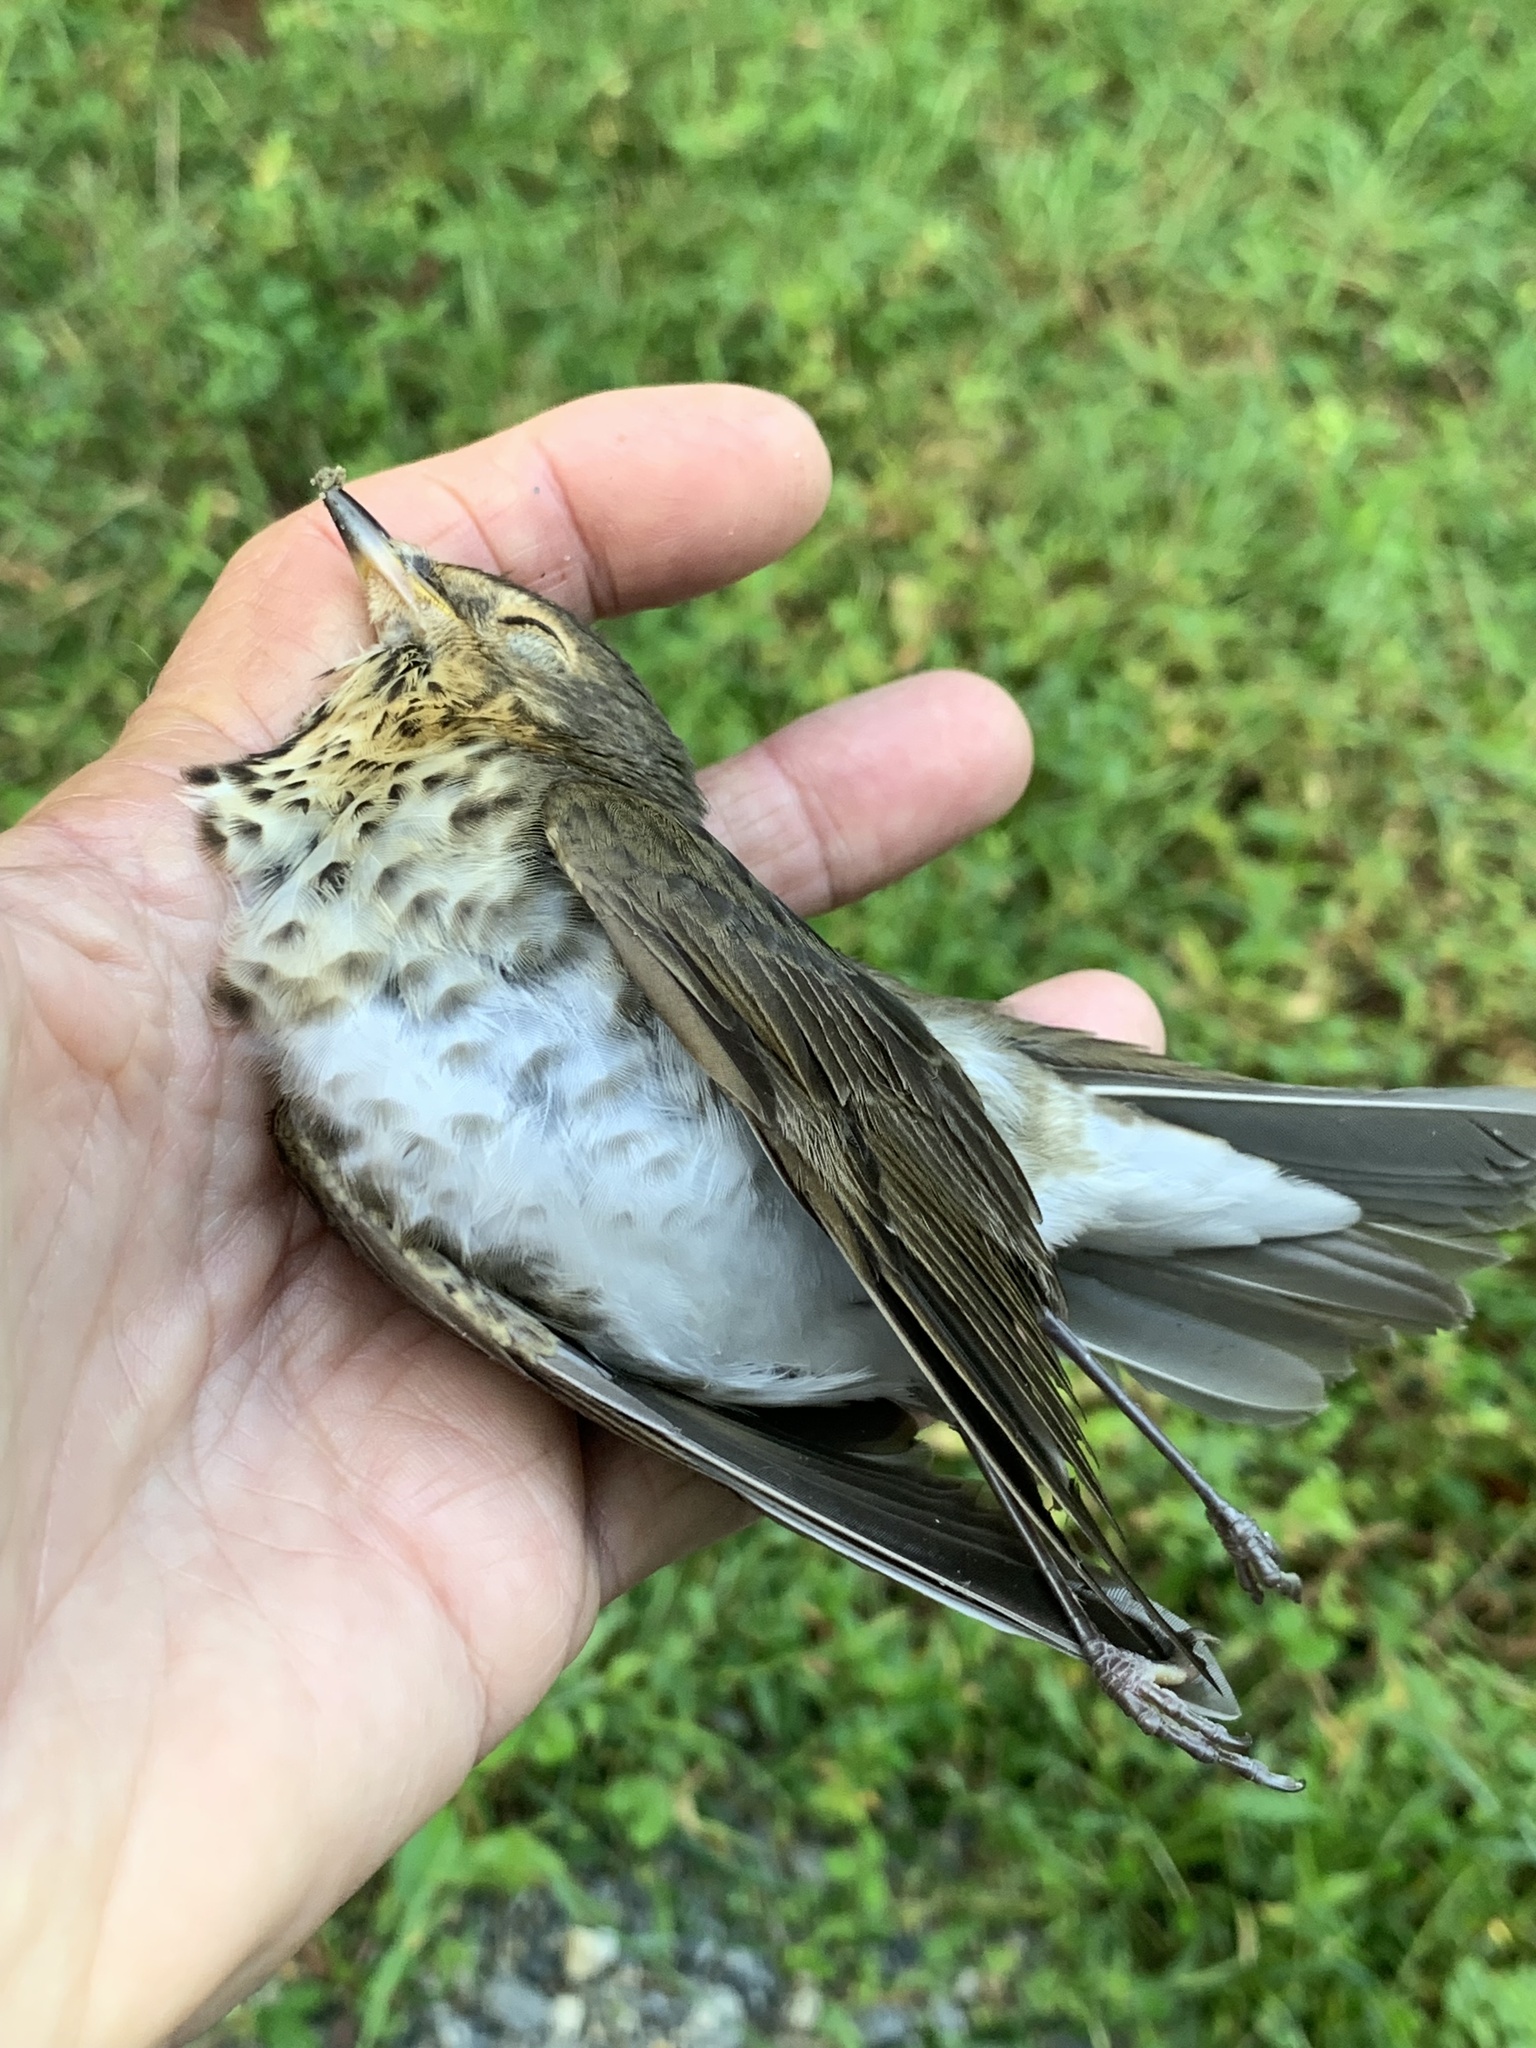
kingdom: Animalia
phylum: Chordata
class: Aves
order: Passeriformes
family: Turdidae
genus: Catharus
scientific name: Catharus ustulatus
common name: Swainson's thrush
